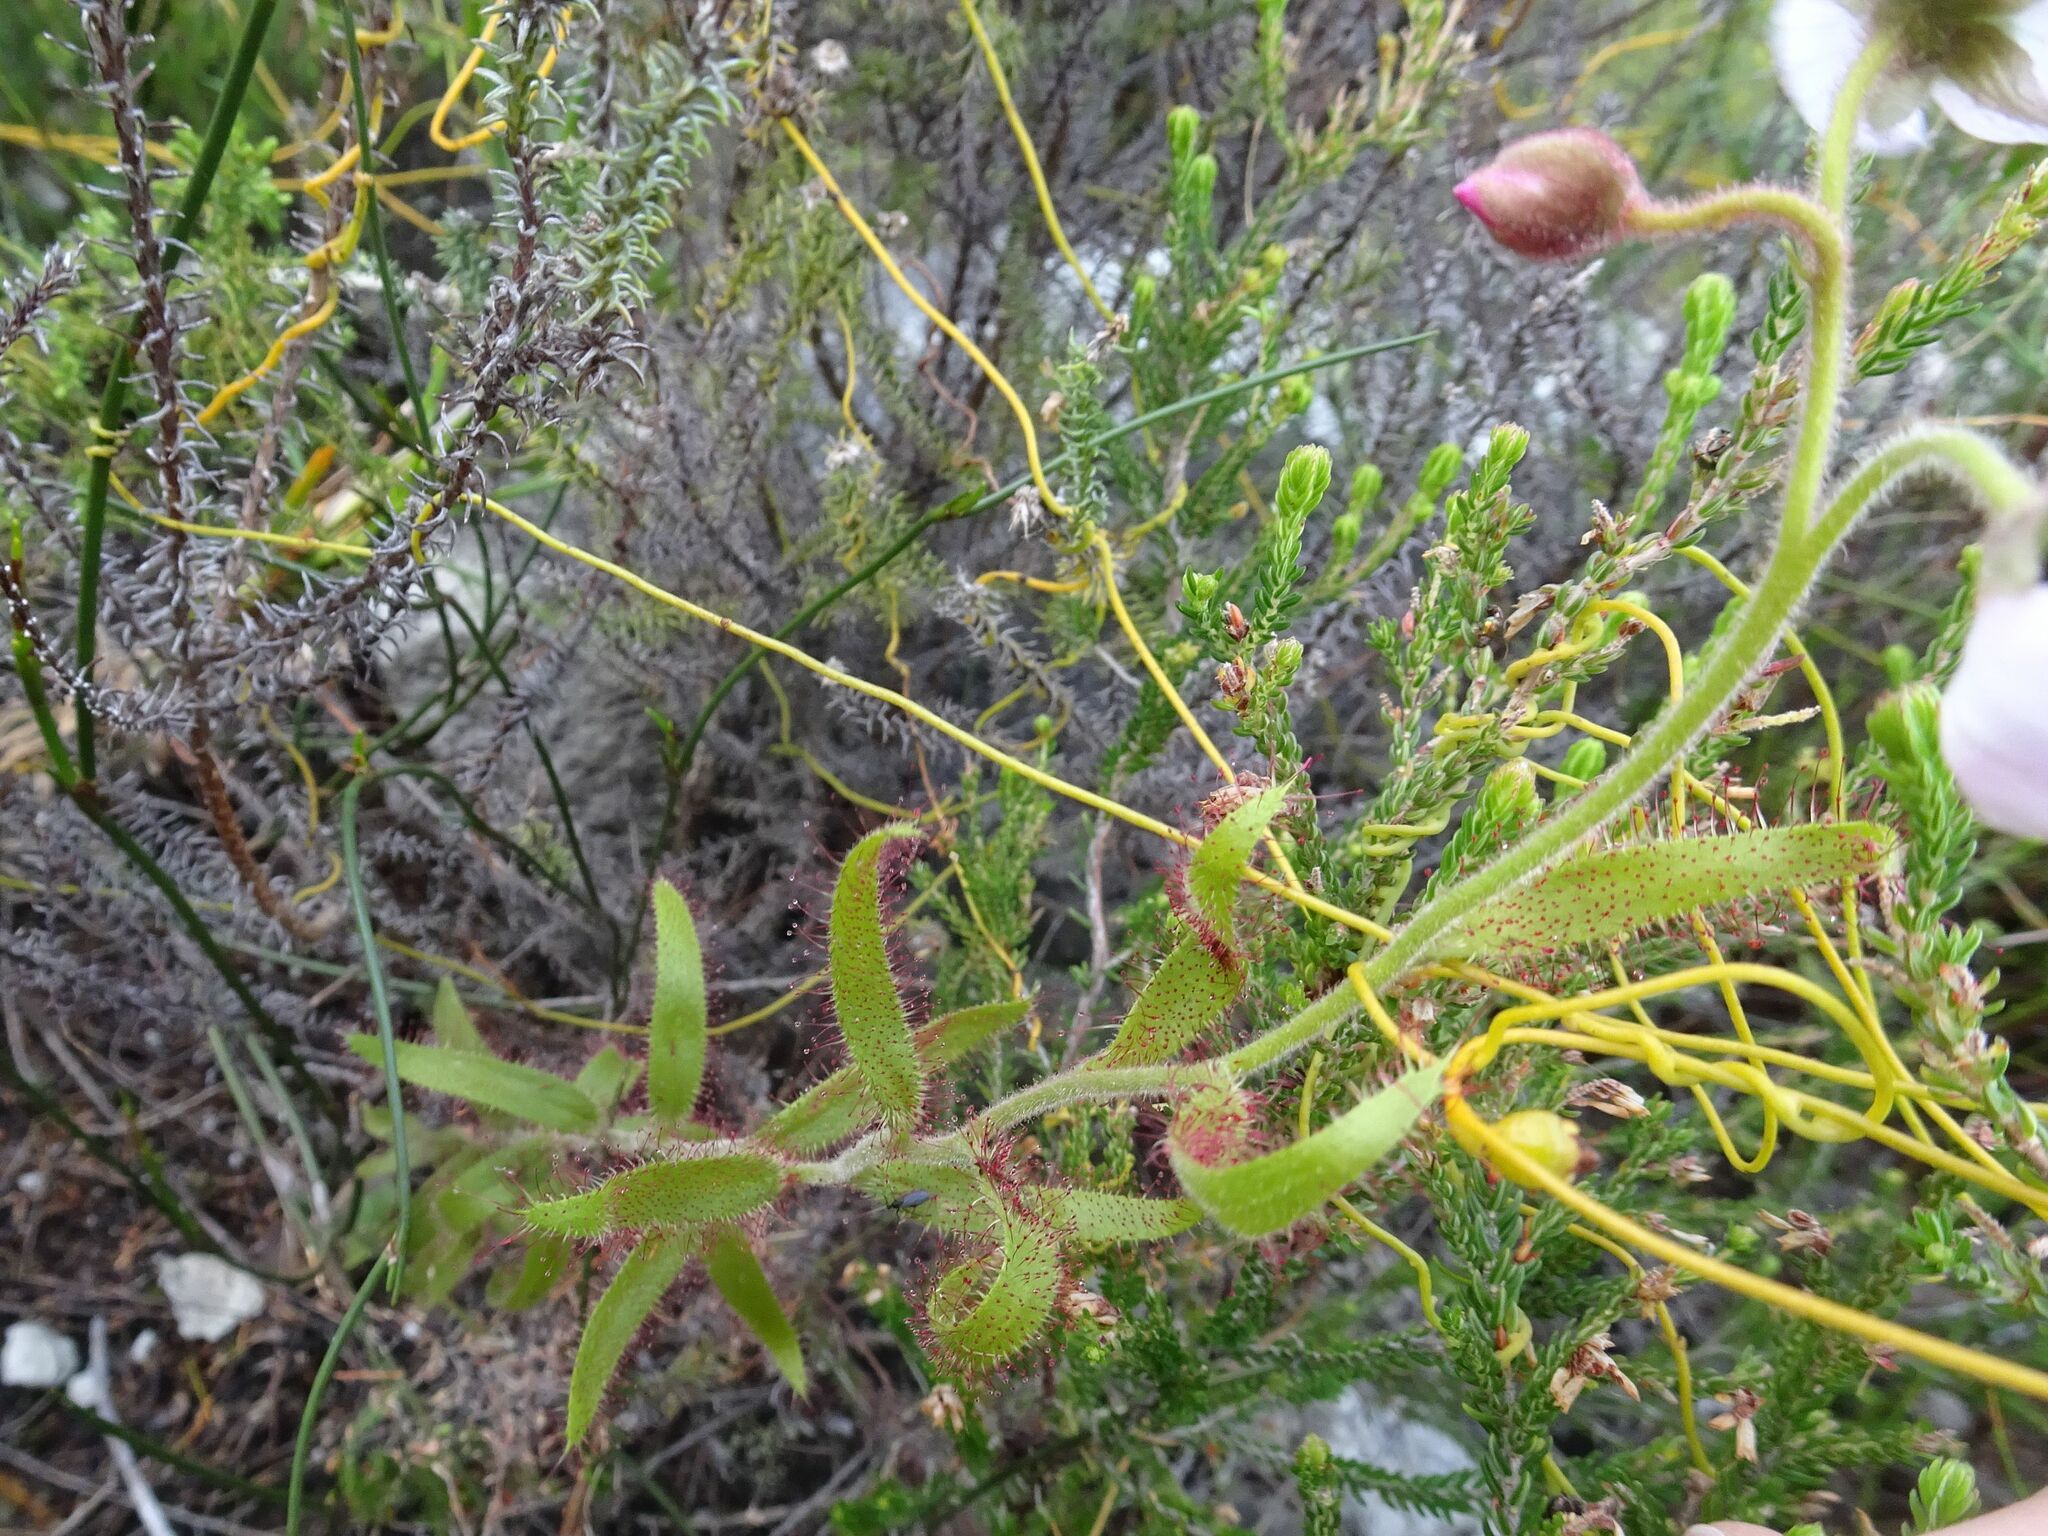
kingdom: Plantae
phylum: Tracheophyta
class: Magnoliopsida
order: Caryophyllales
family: Droseraceae
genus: Drosera
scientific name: Drosera cistiflora
